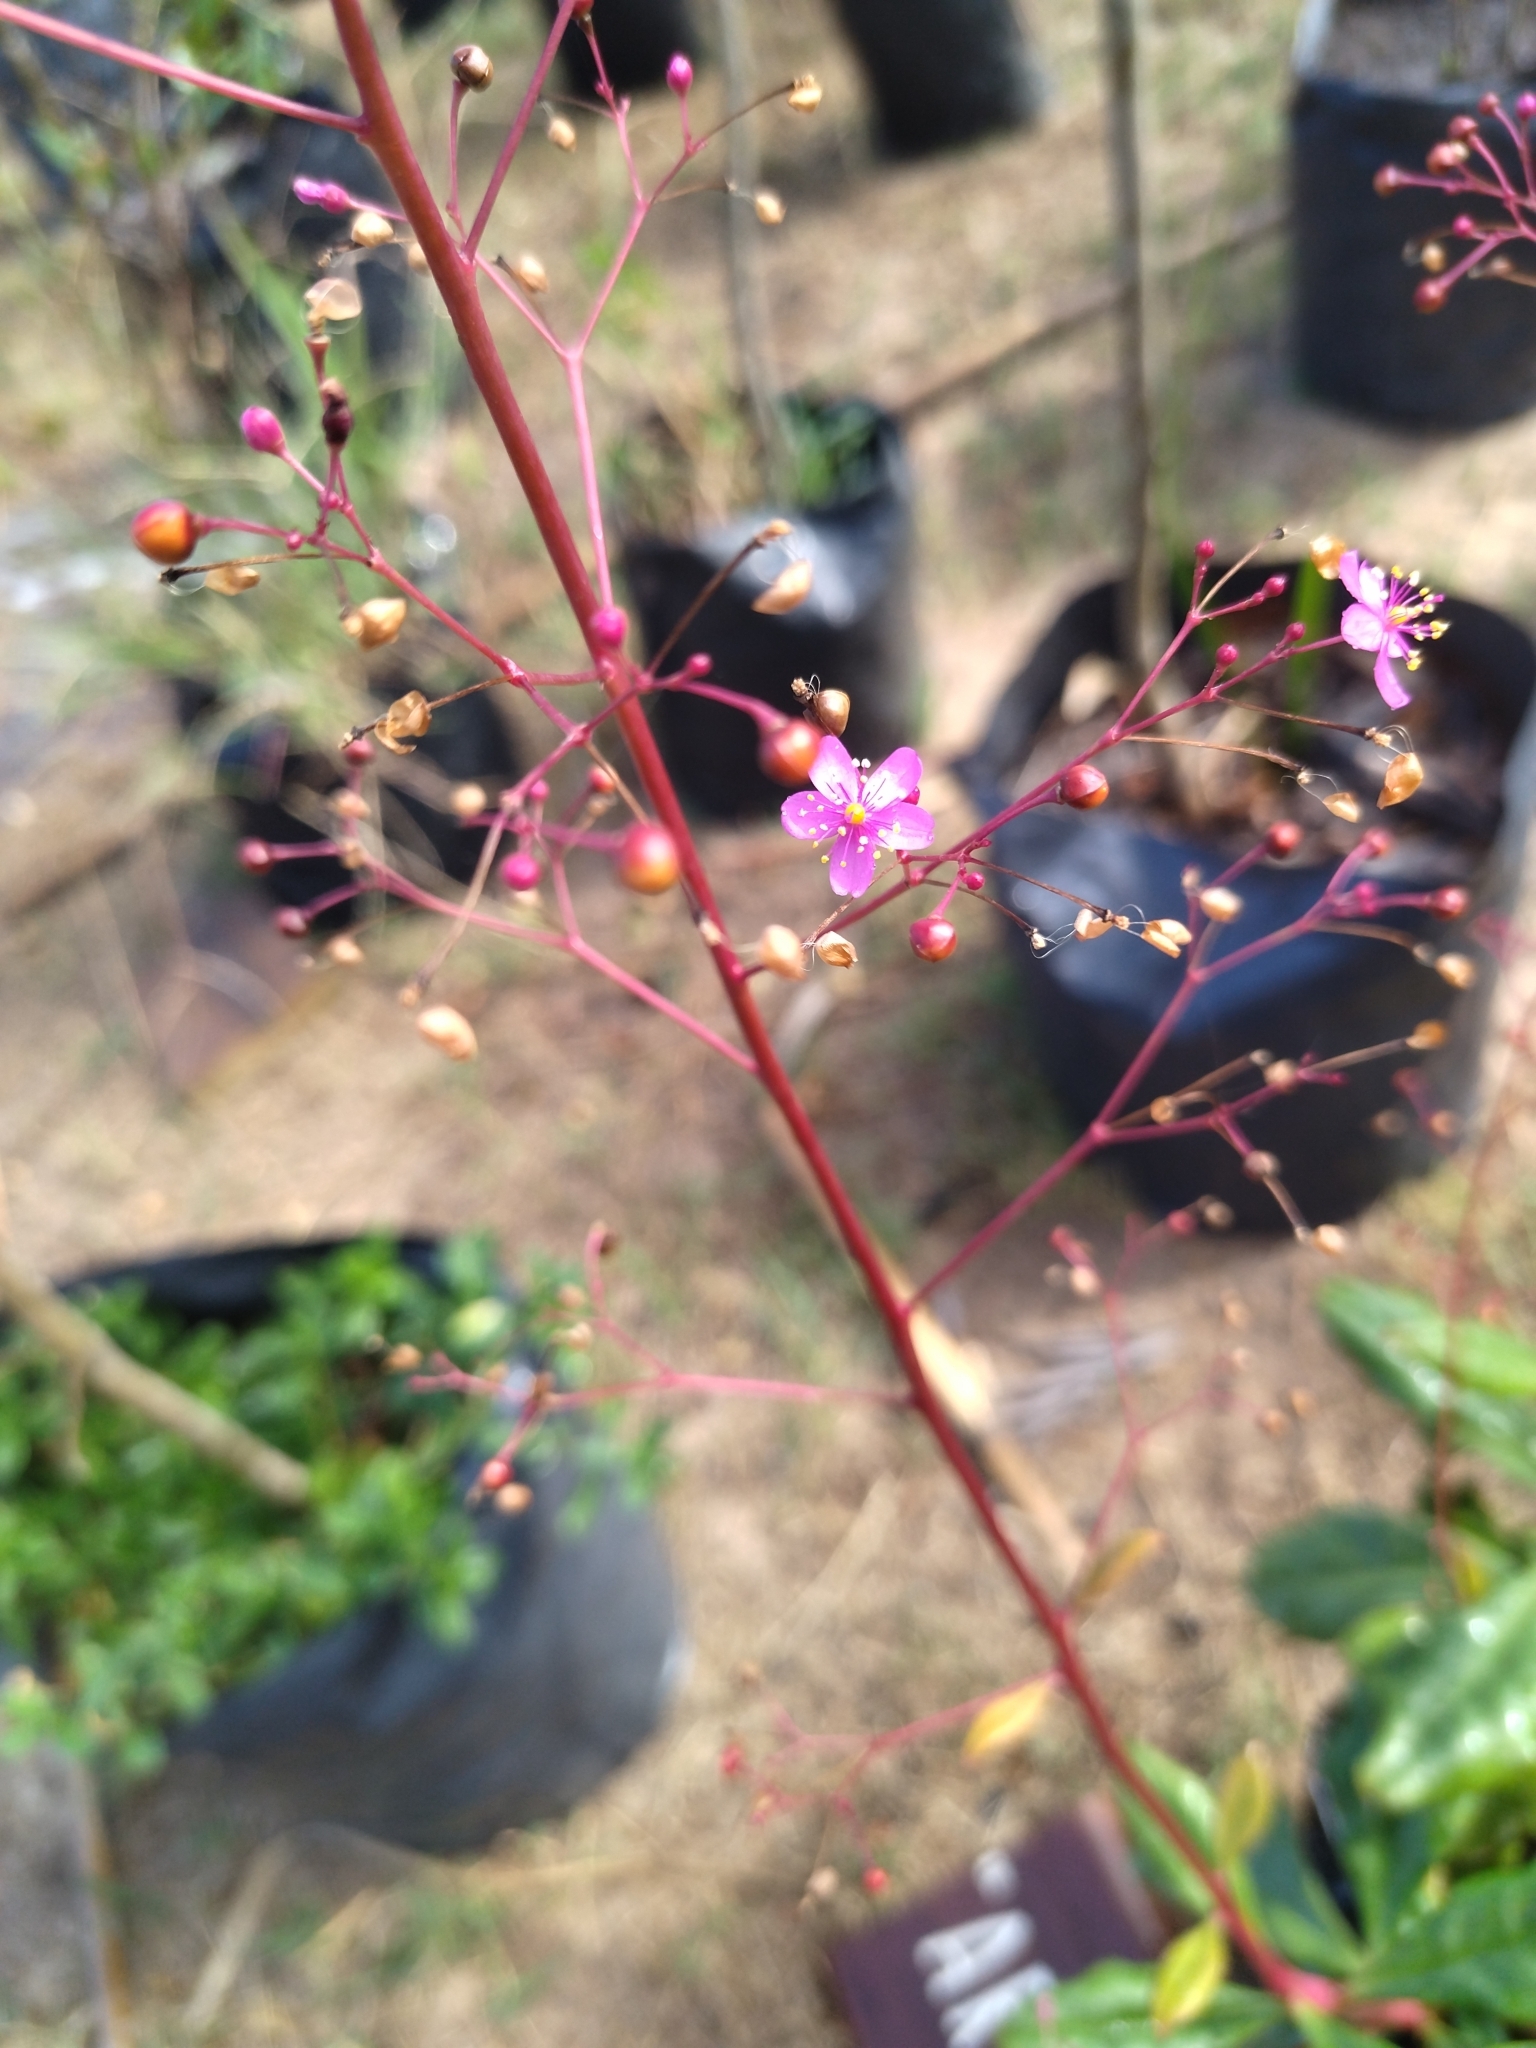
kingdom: Plantae
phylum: Tracheophyta
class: Magnoliopsida
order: Caryophyllales
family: Talinaceae
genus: Talinum
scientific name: Talinum paniculatum
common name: Jewels of opar
